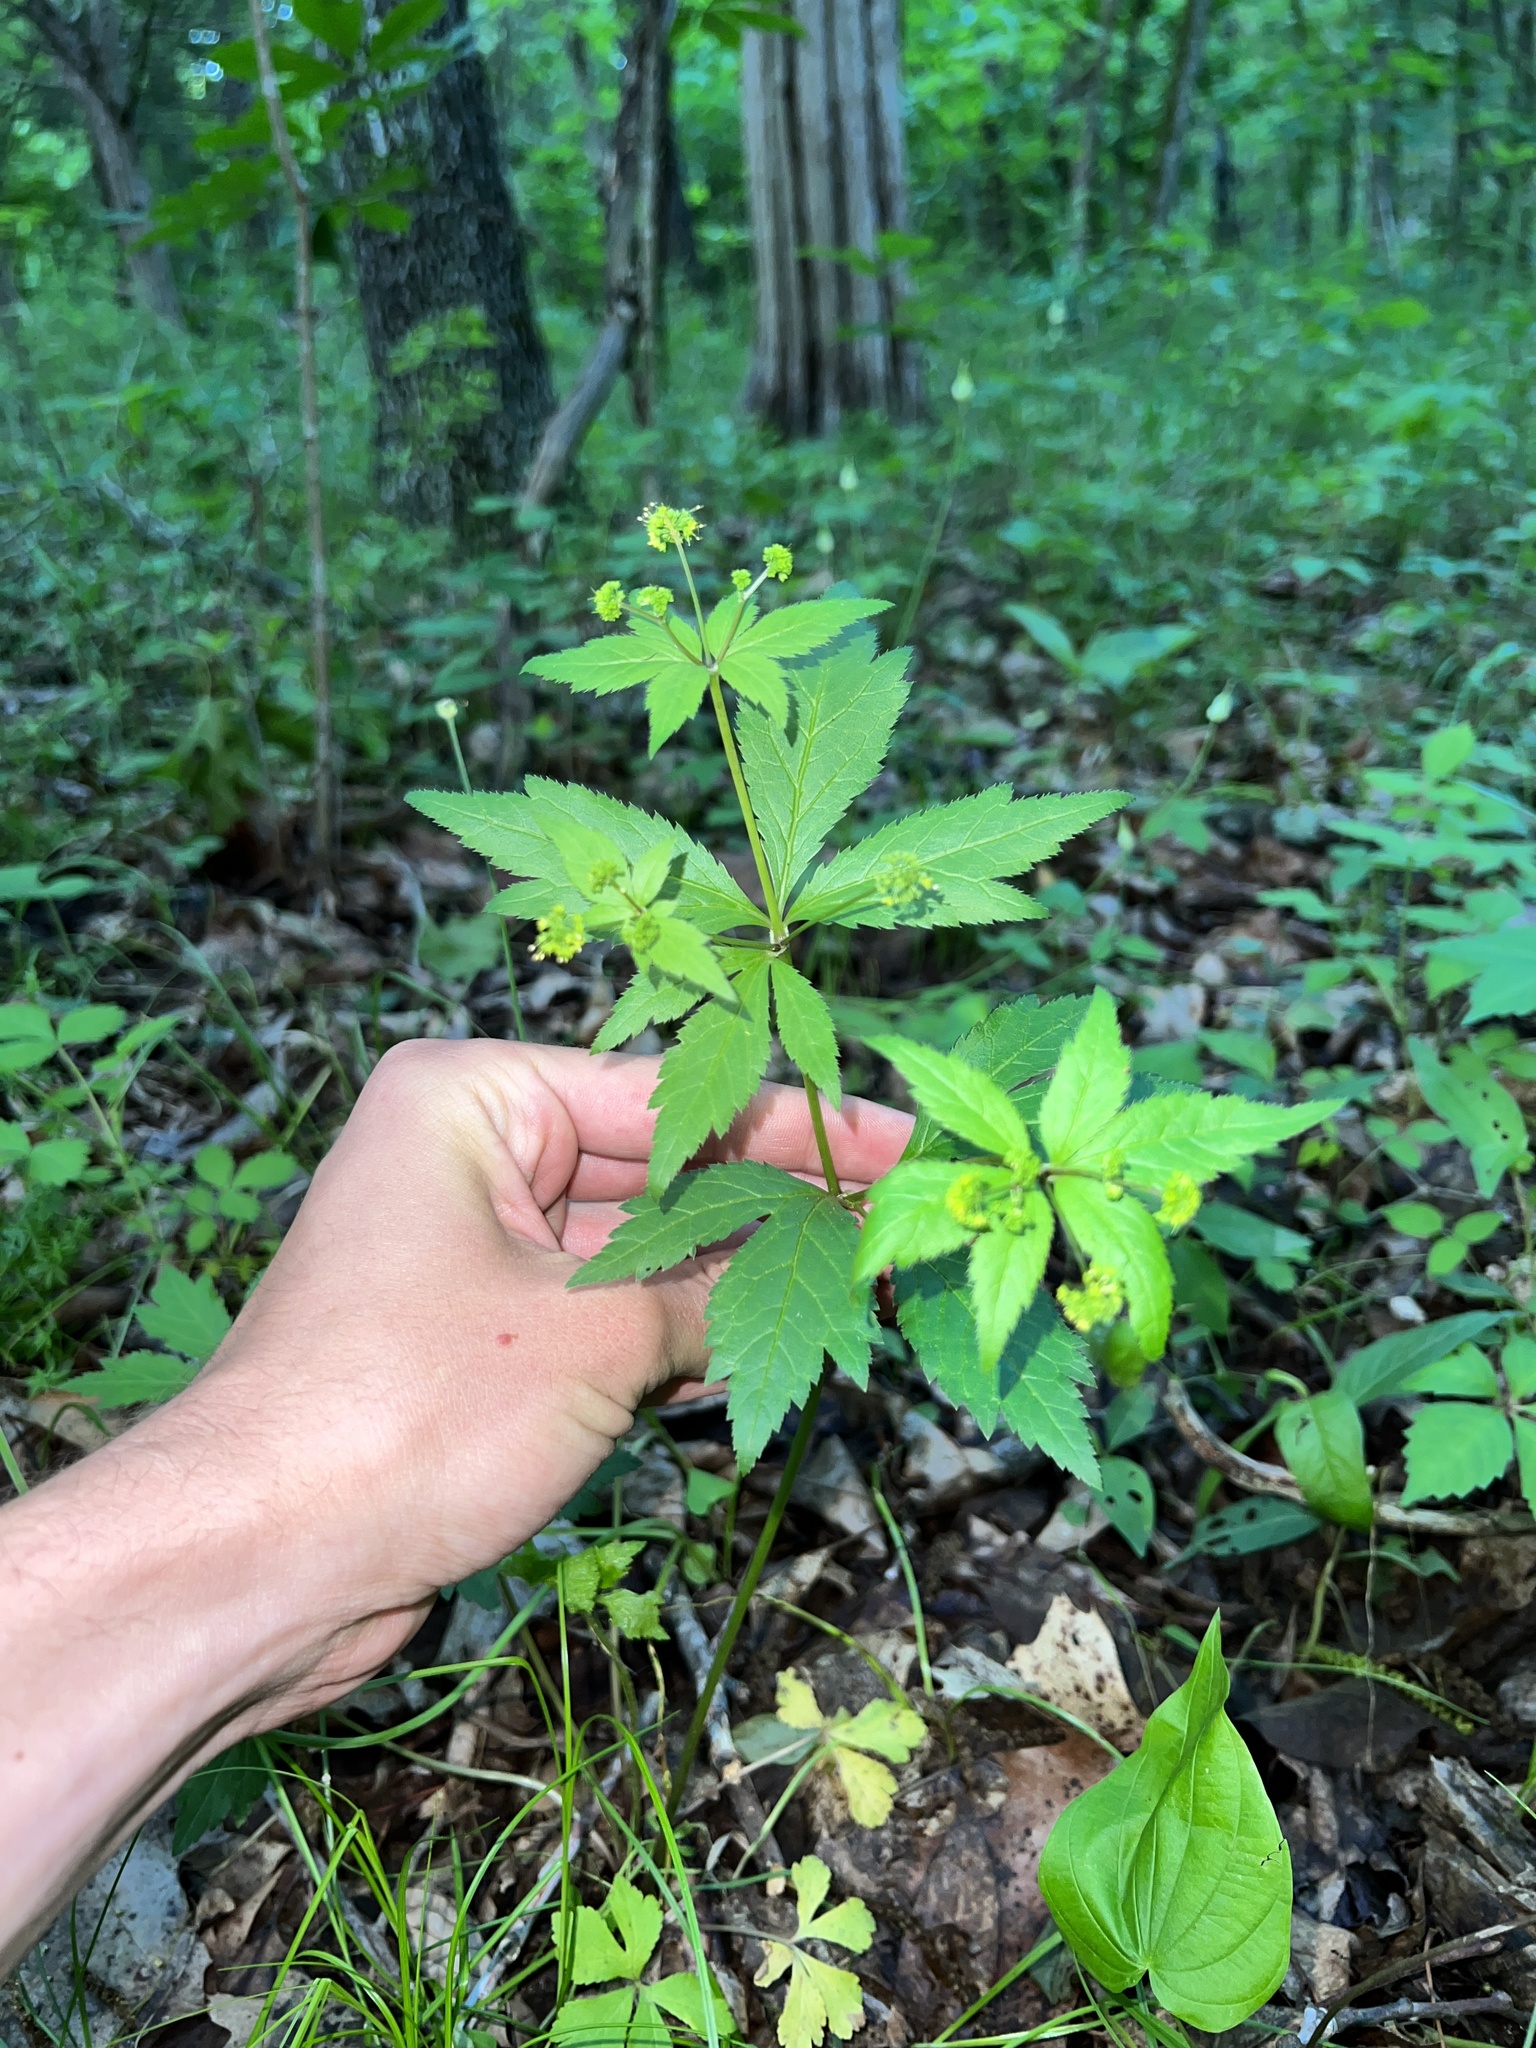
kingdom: Plantae
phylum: Tracheophyta
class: Magnoliopsida
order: Apiales
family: Apiaceae
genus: Sanicula
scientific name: Sanicula odorata
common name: Cluster sanicle
